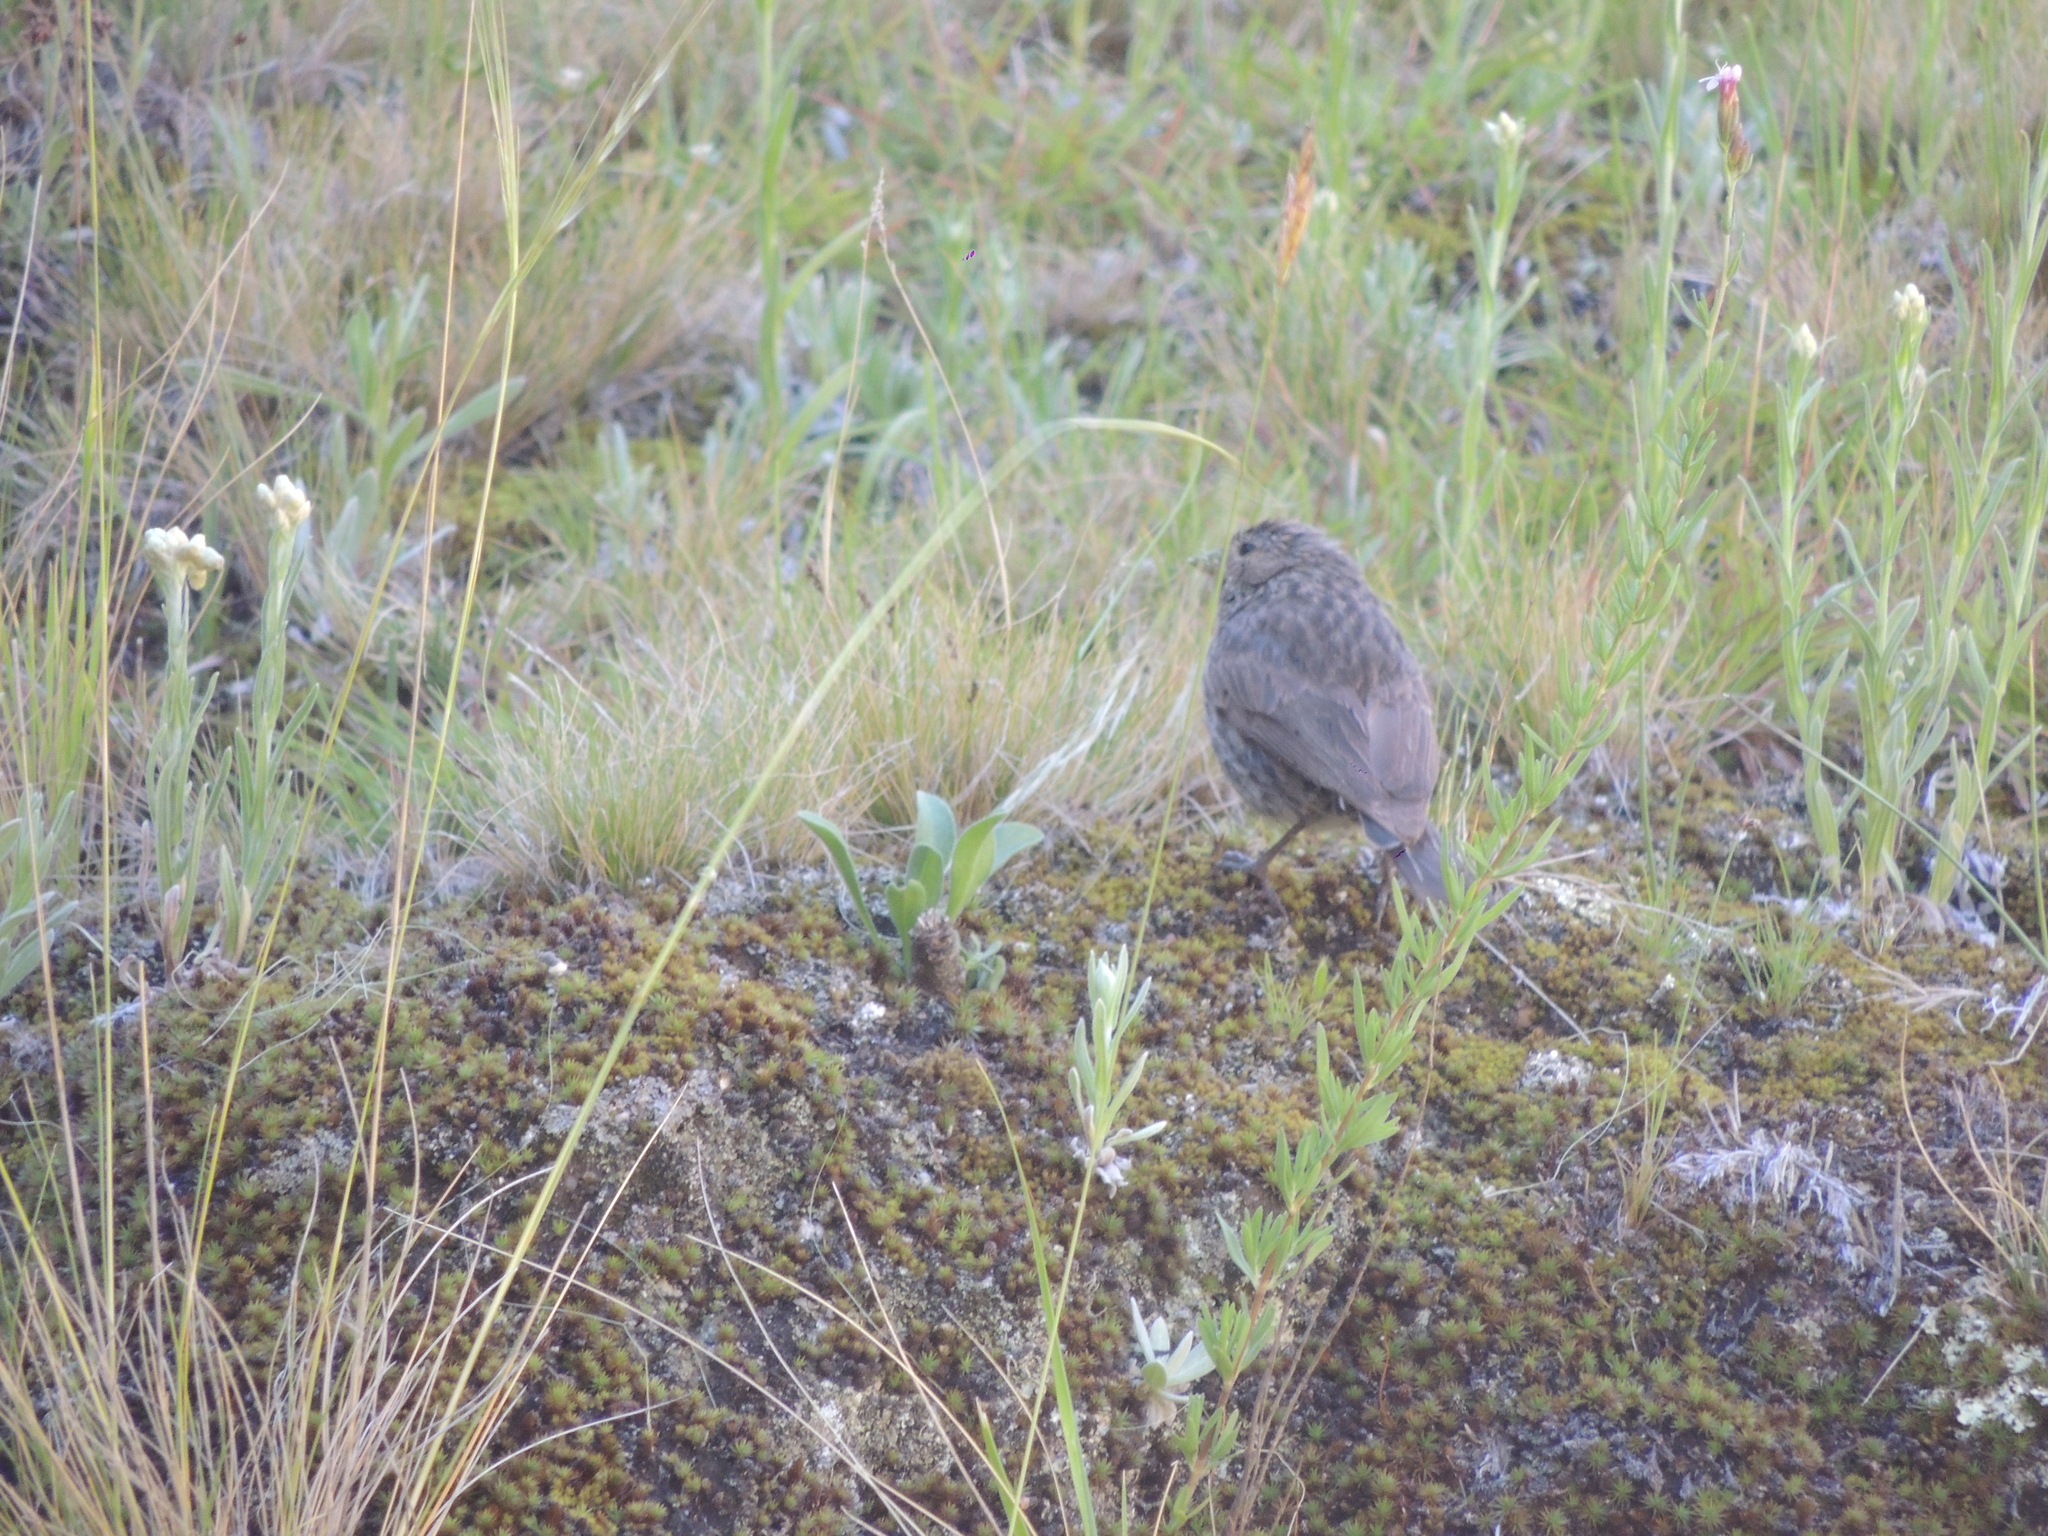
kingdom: Animalia
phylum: Chordata
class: Aves
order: Passeriformes
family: Thraupidae
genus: Geospizopsis
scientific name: Geospizopsis unicolor
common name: Plumbeous sierra-finch
